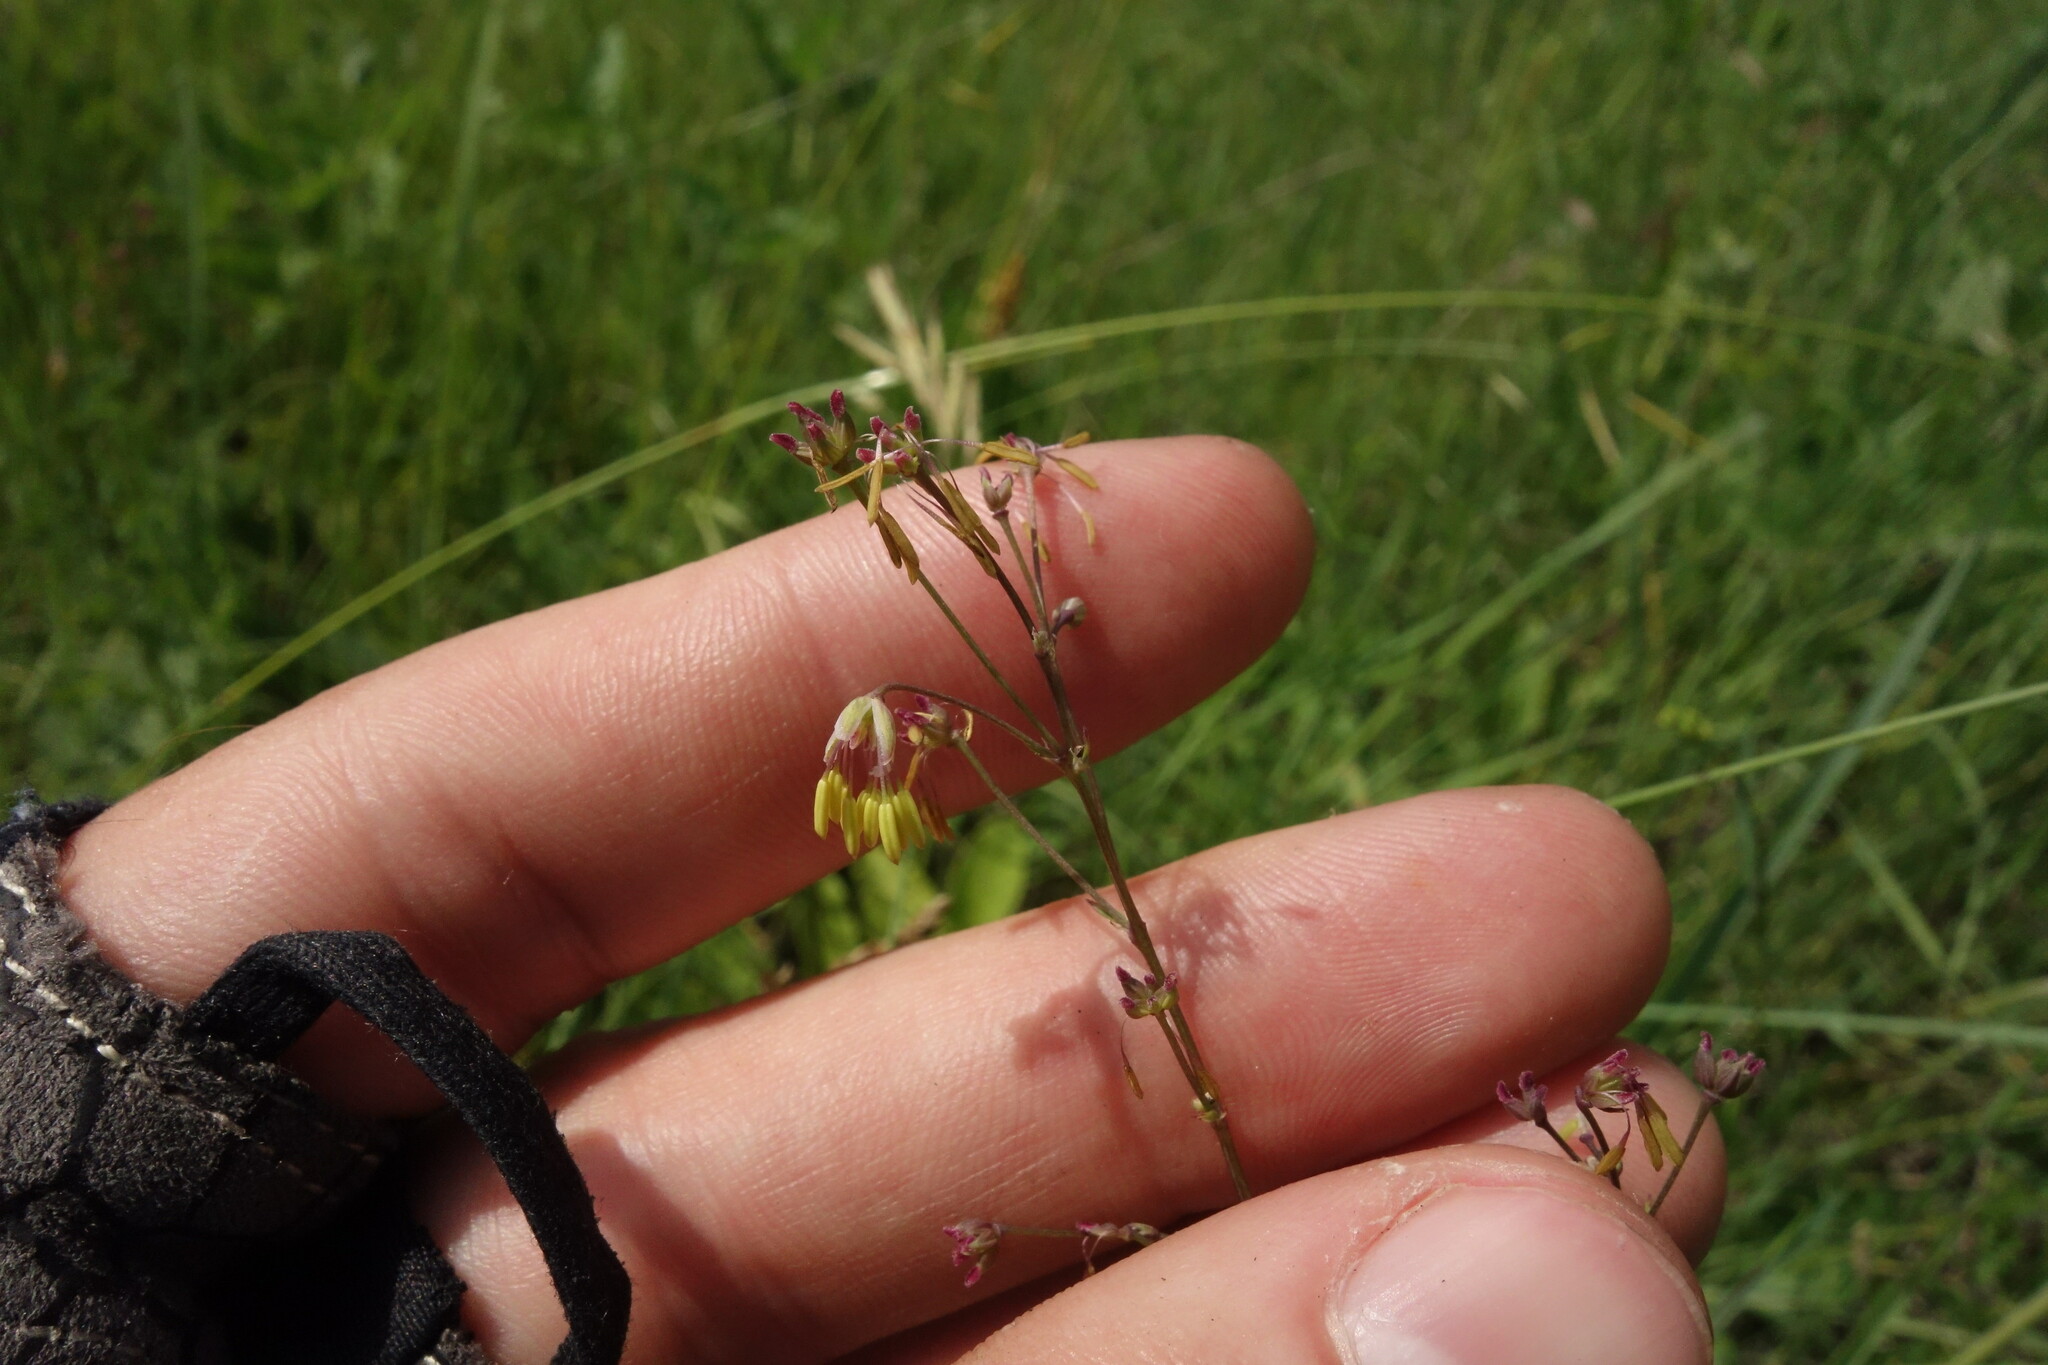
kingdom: Plantae
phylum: Tracheophyta
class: Magnoliopsida
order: Ranunculales
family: Ranunculaceae
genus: Thalictrum
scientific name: Thalictrum minus
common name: Lesser meadow-rue
